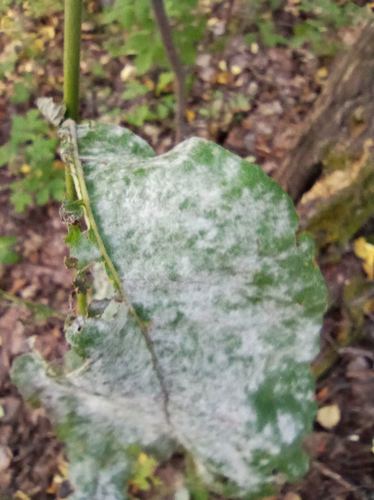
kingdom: Fungi
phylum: Ascomycota
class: Leotiomycetes
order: Helotiales
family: Erysiphaceae
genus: Erysiphe
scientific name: Erysiphe alphitoides
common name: Oak mildew
